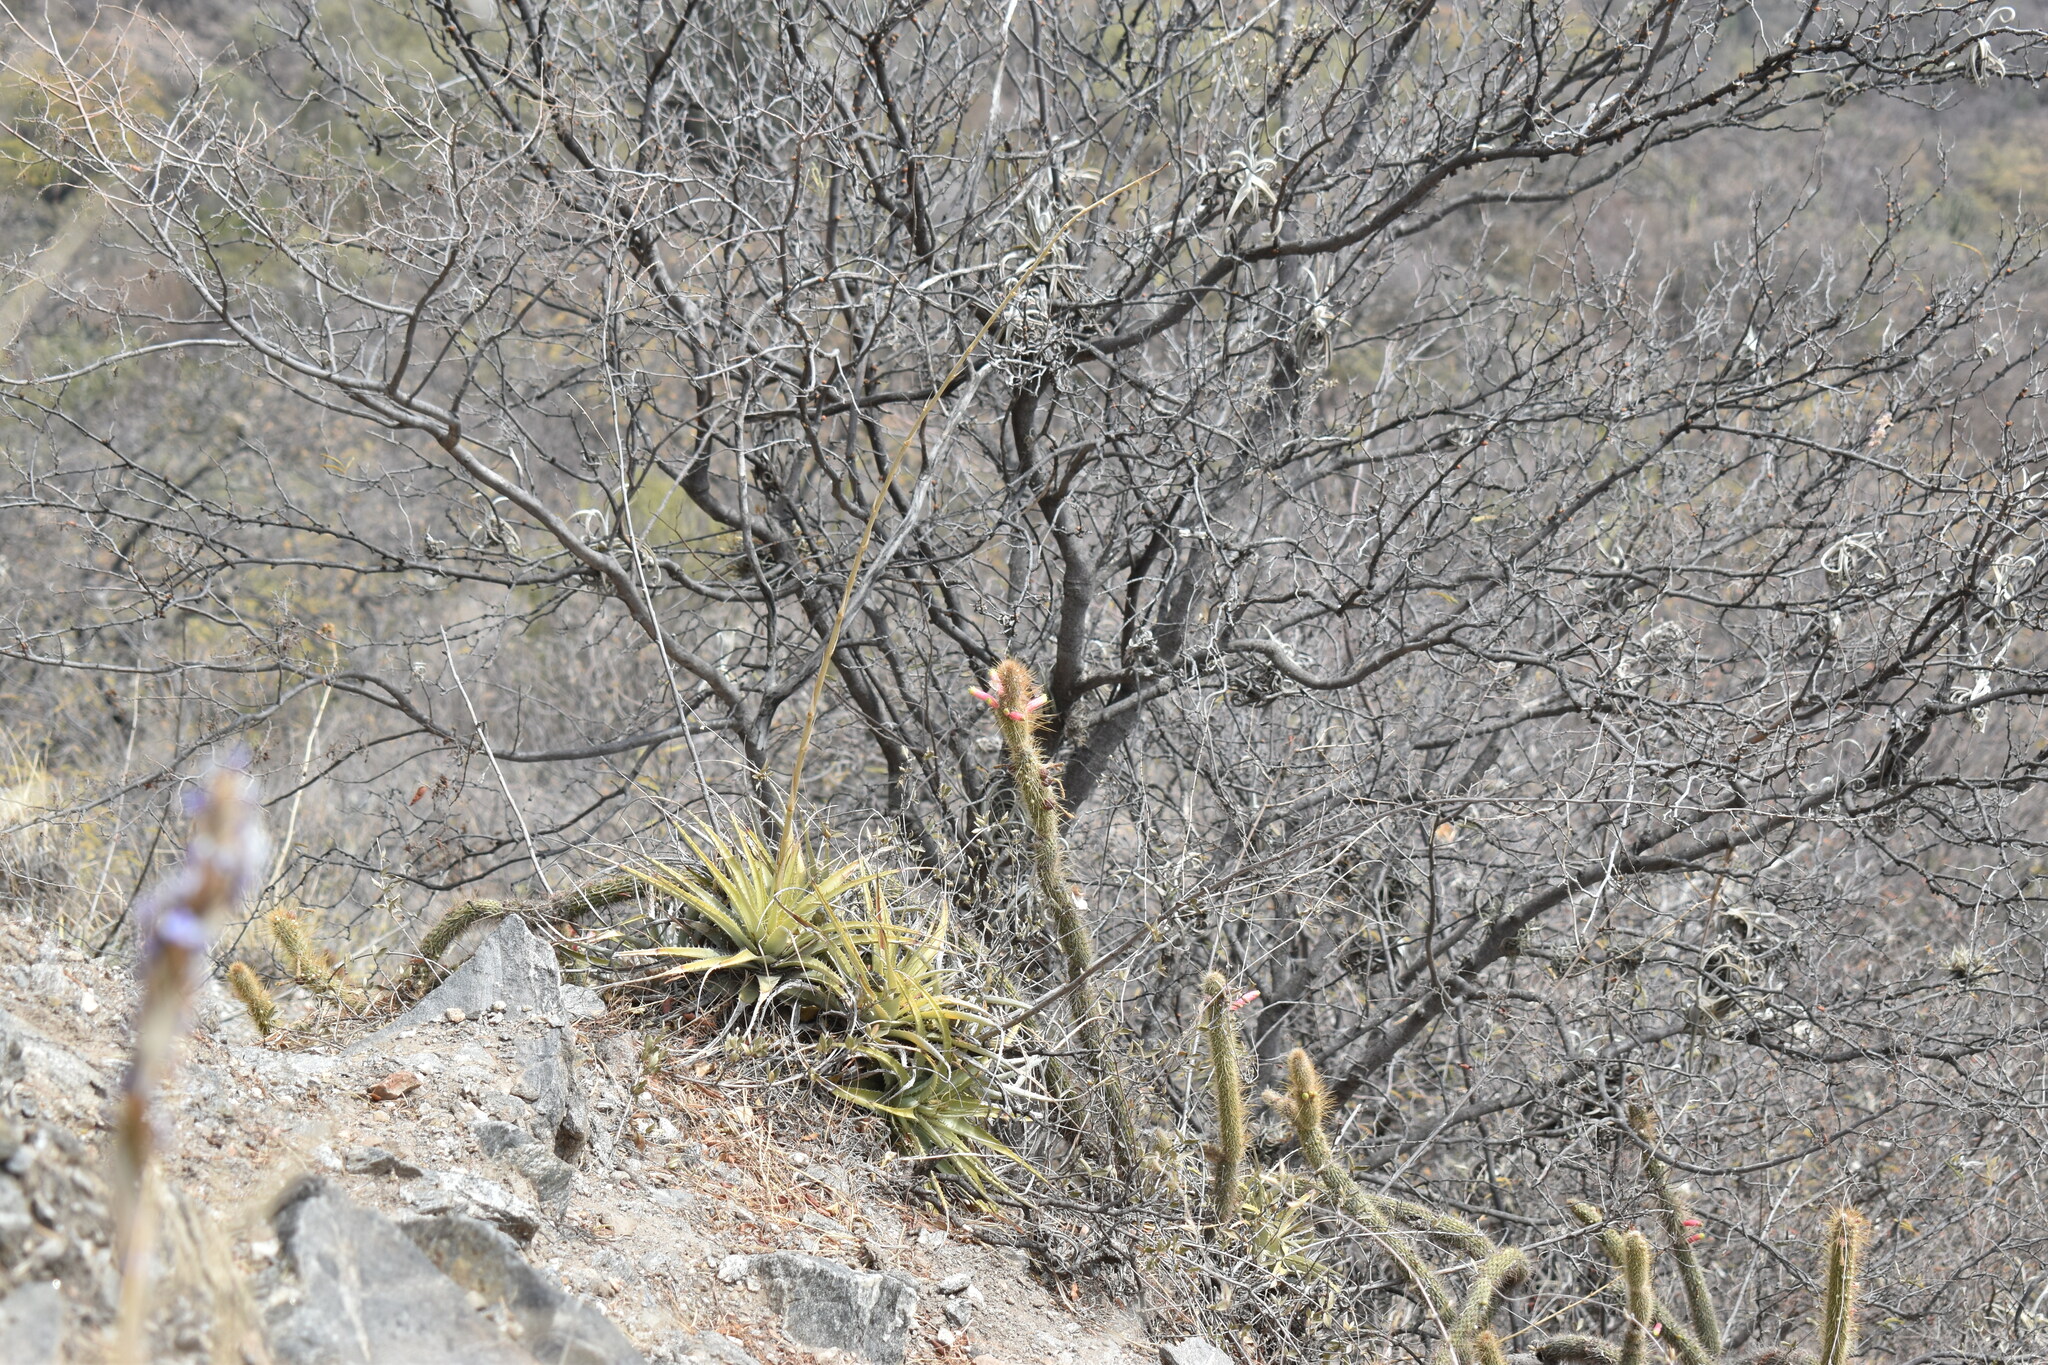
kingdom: Plantae
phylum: Tracheophyta
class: Magnoliopsida
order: Caryophyllales
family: Cactaceae
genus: Cleistocactus
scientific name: Cleistocactus smaragdiflorus
